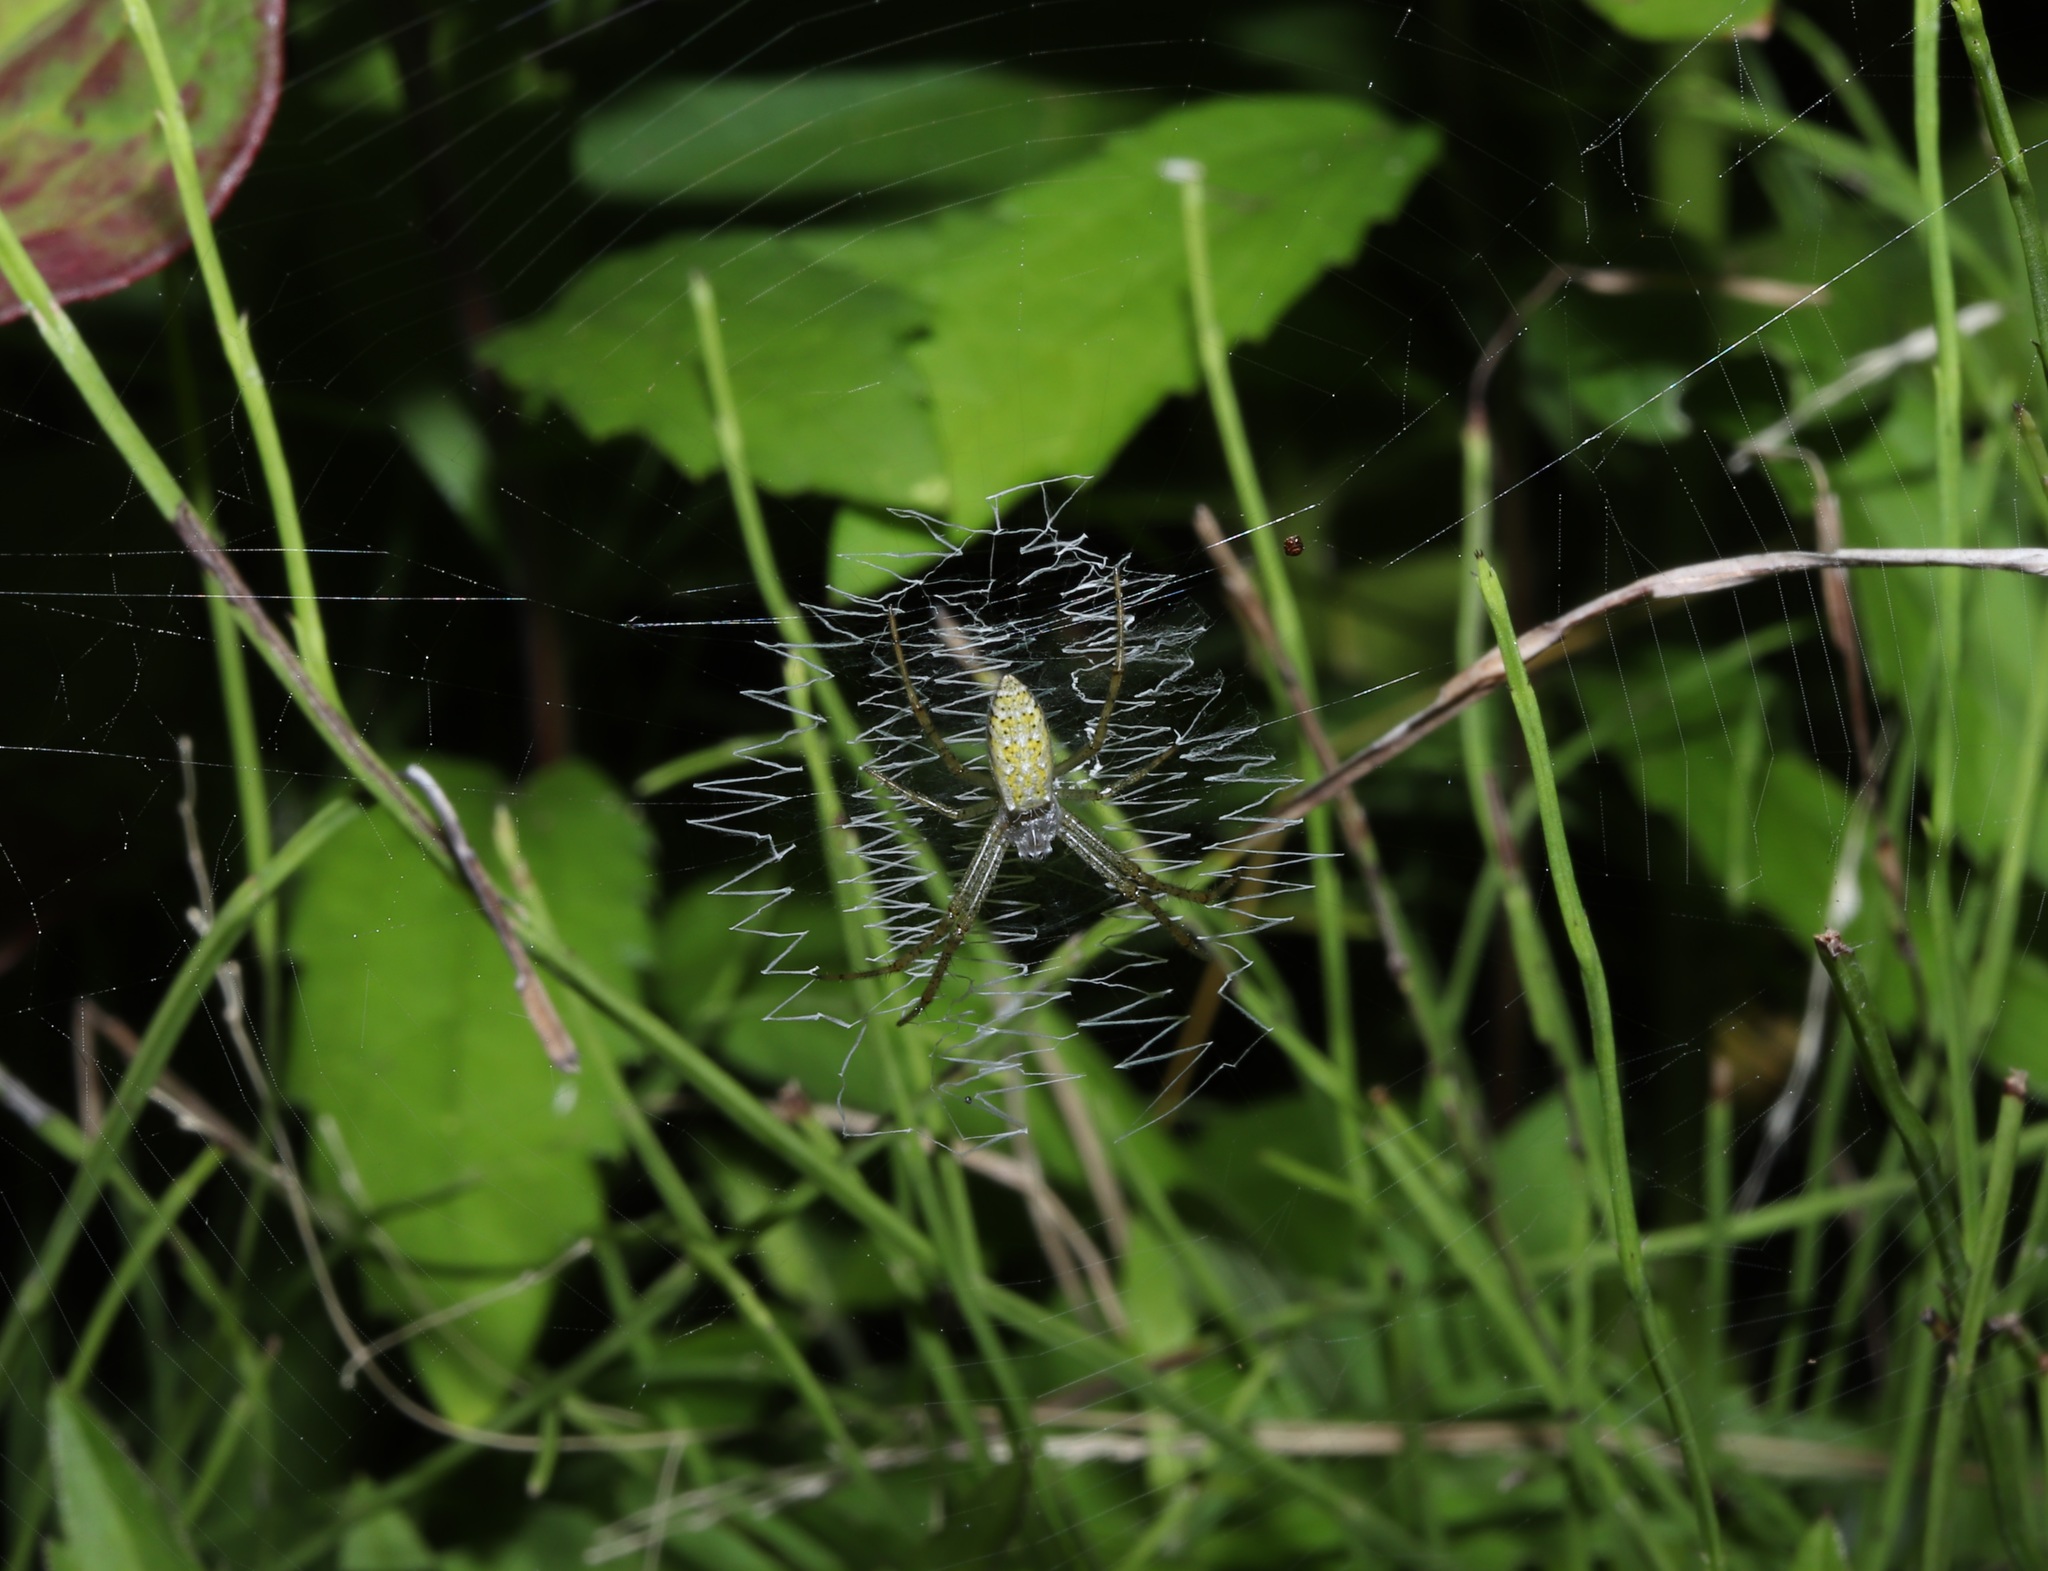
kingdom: Animalia
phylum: Arthropoda
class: Arachnida
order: Araneae
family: Araneidae
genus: Argiope
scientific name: Argiope bruennichi
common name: Wasp spider
